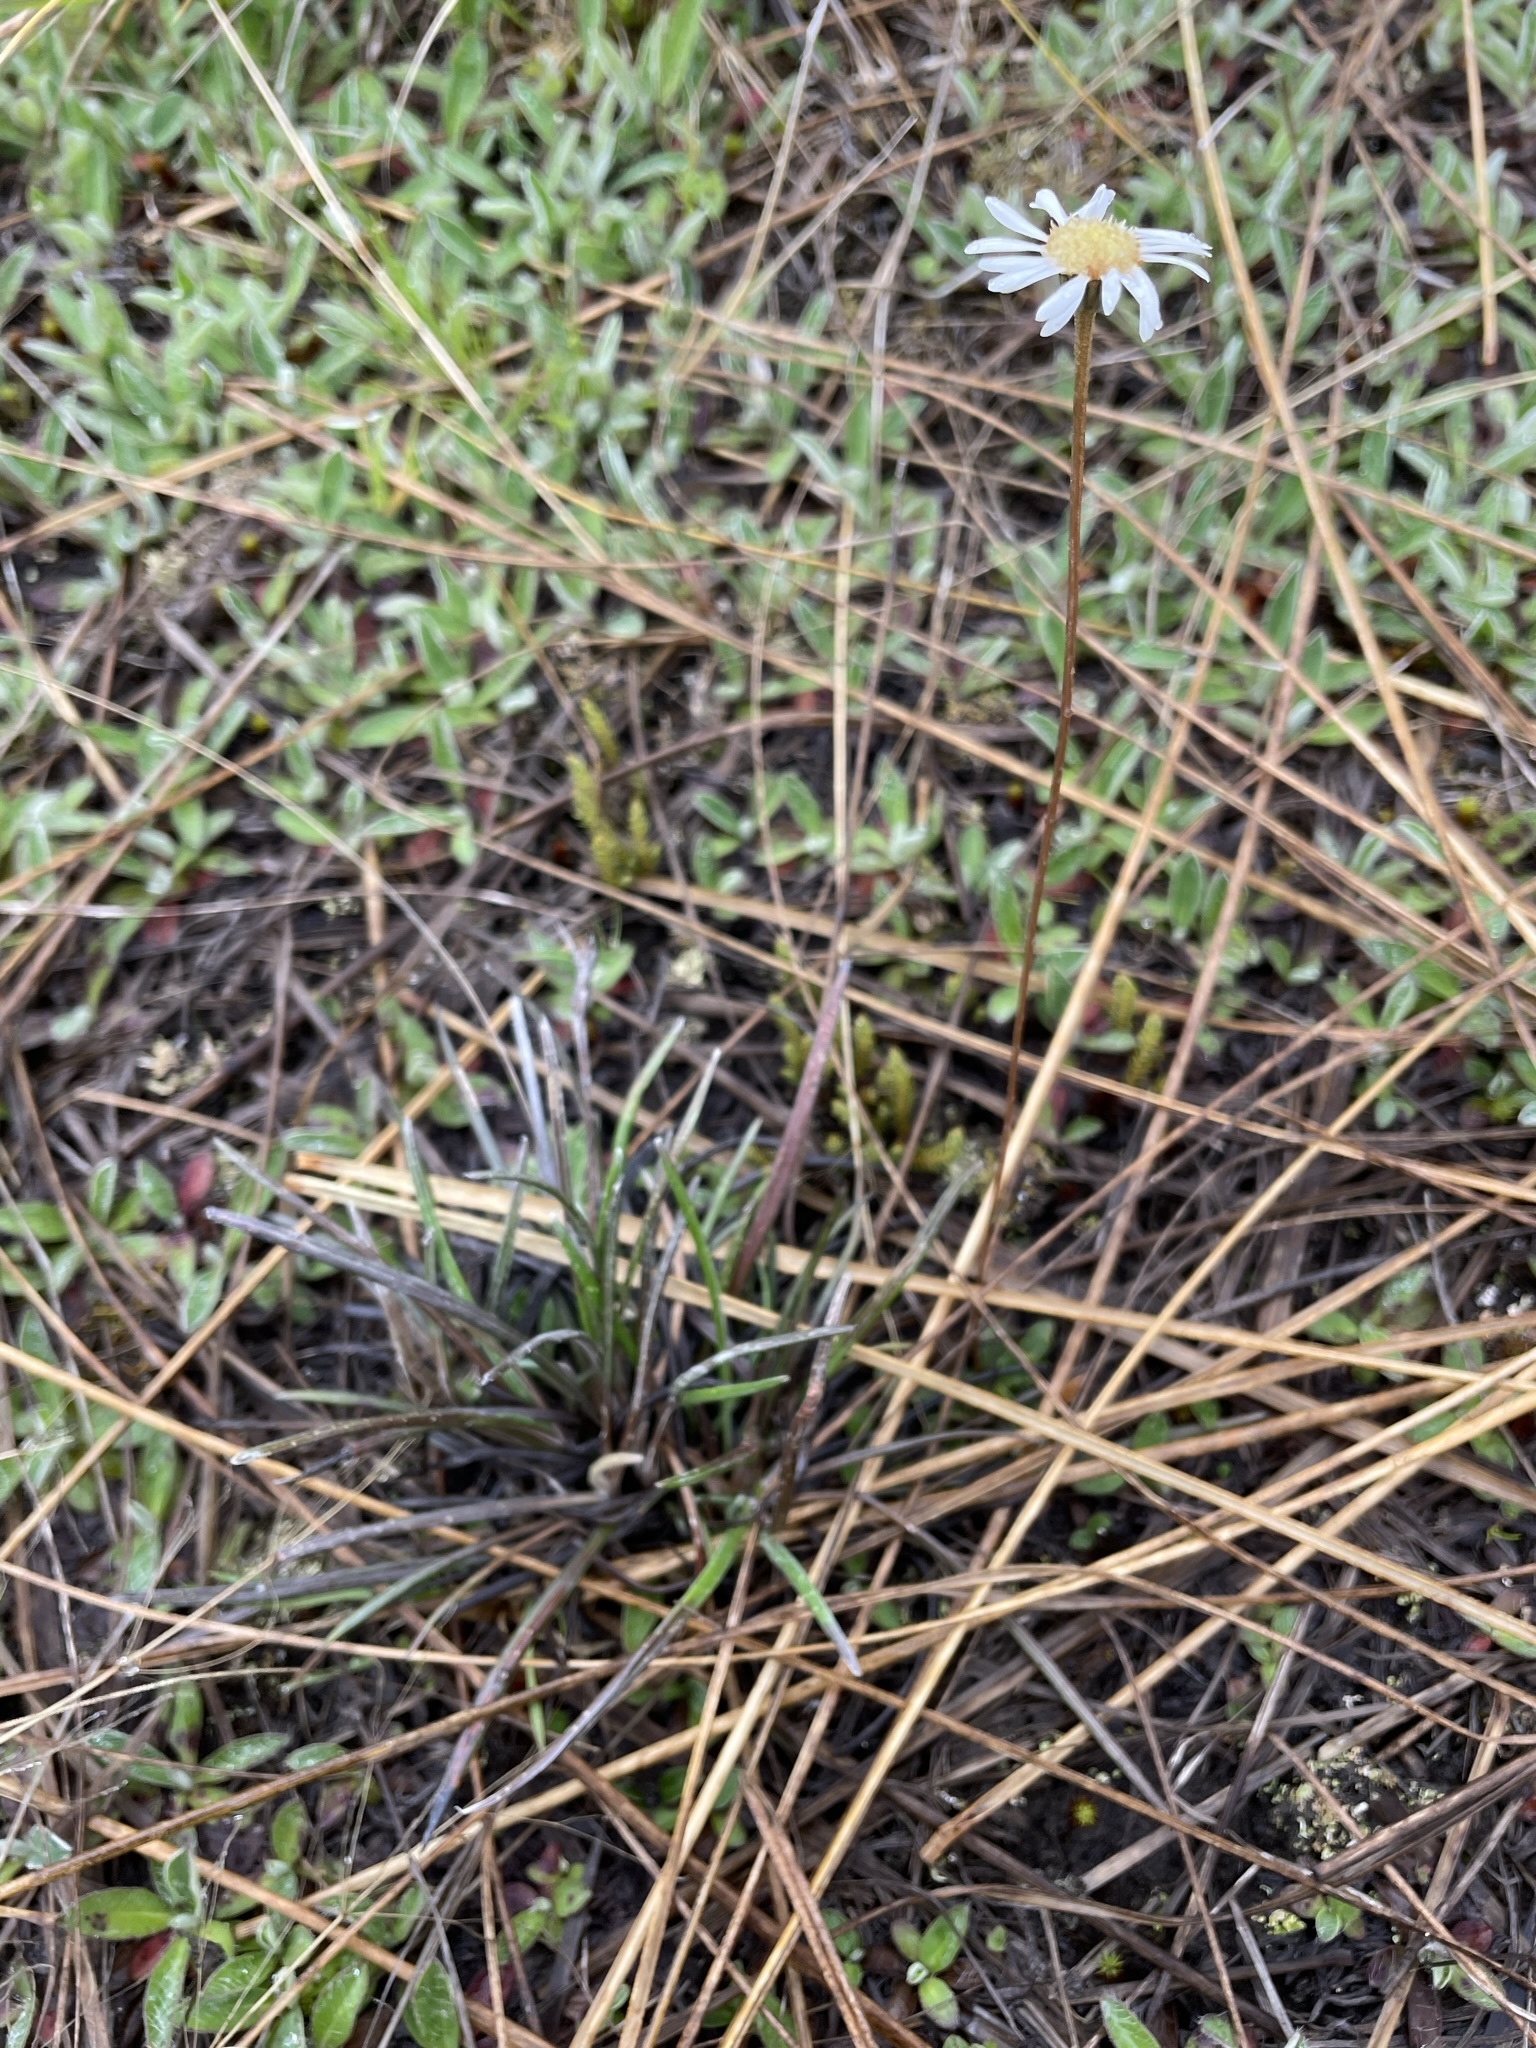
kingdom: Plantae
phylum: Tracheophyta
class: Magnoliopsida
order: Asterales
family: Asteraceae
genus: Celmisia
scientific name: Celmisia gracilenta
